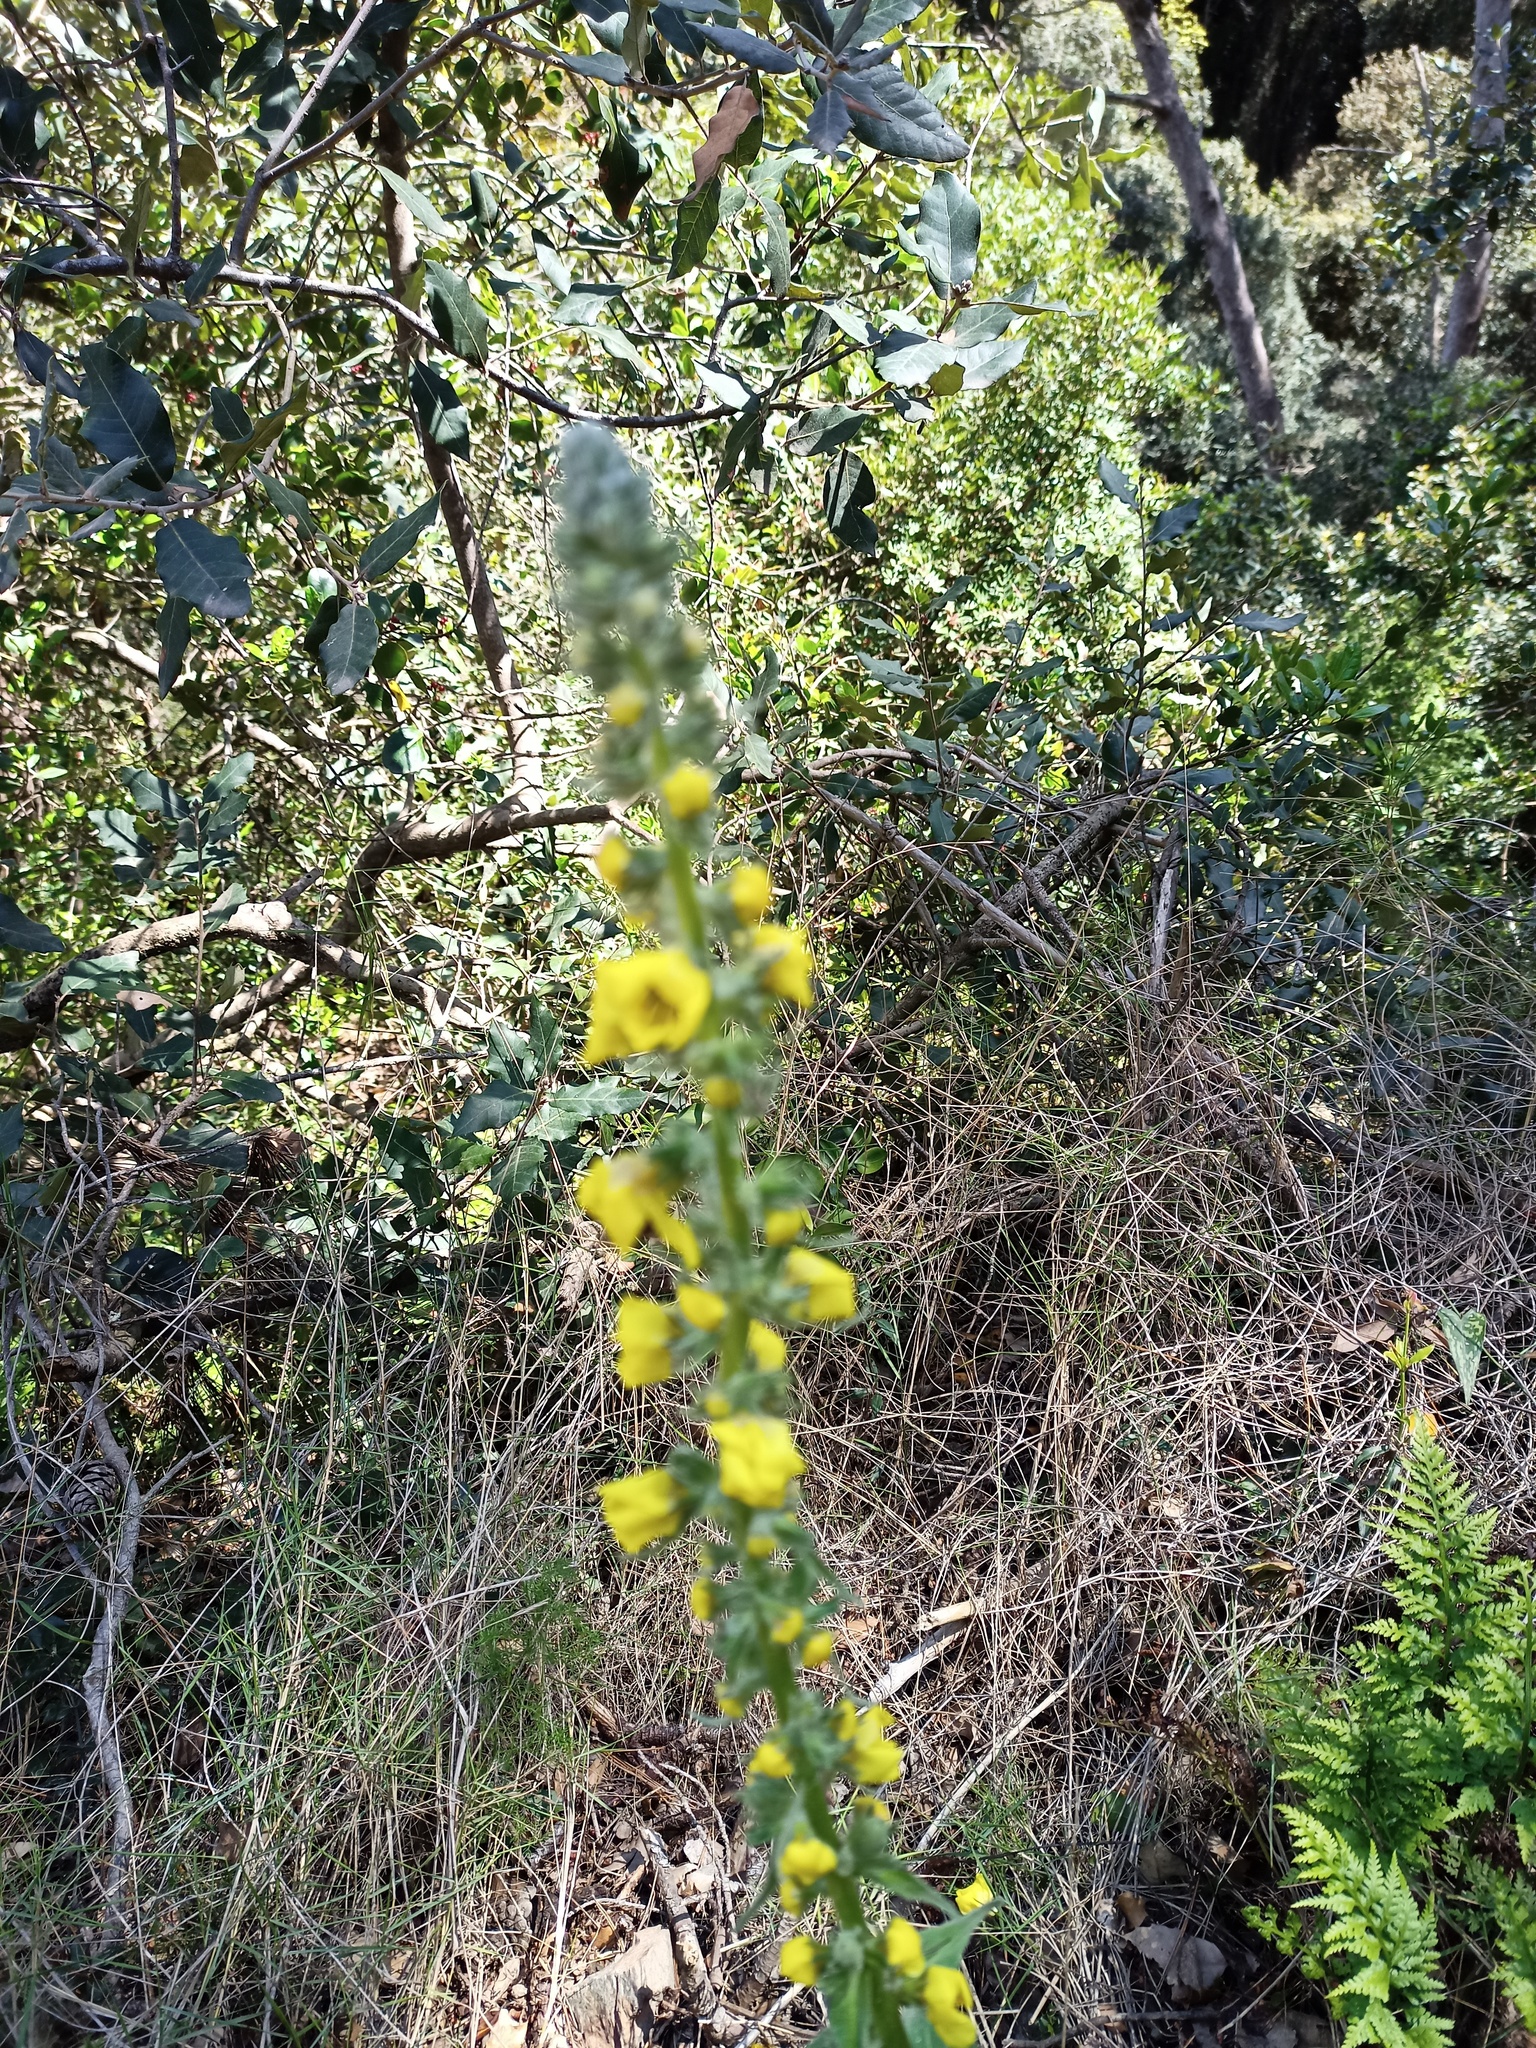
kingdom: Plantae
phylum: Tracheophyta
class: Magnoliopsida
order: Lamiales
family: Scrophulariaceae
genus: Verbascum
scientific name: Verbascum virgatum
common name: Twiggy mullein
